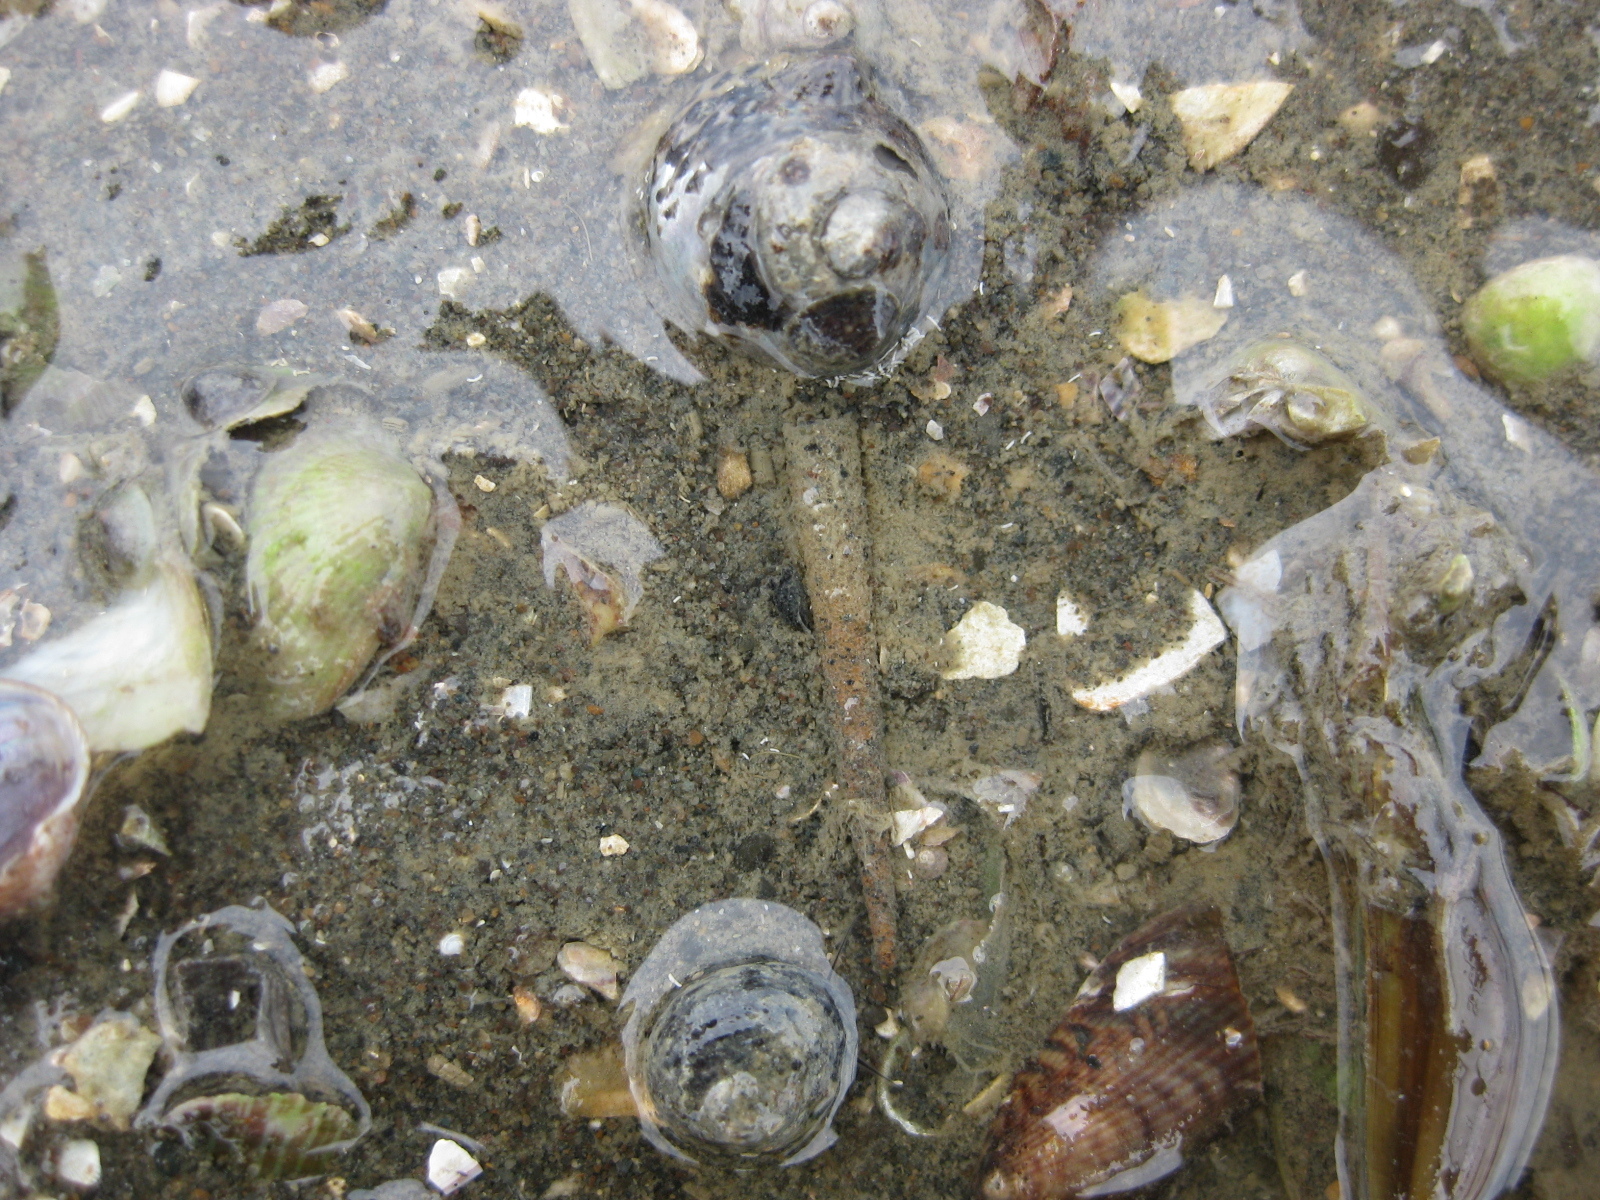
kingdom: Animalia
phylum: Annelida
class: Polychaeta
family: Pectinariidae
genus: Lagis
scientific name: Lagis australis
